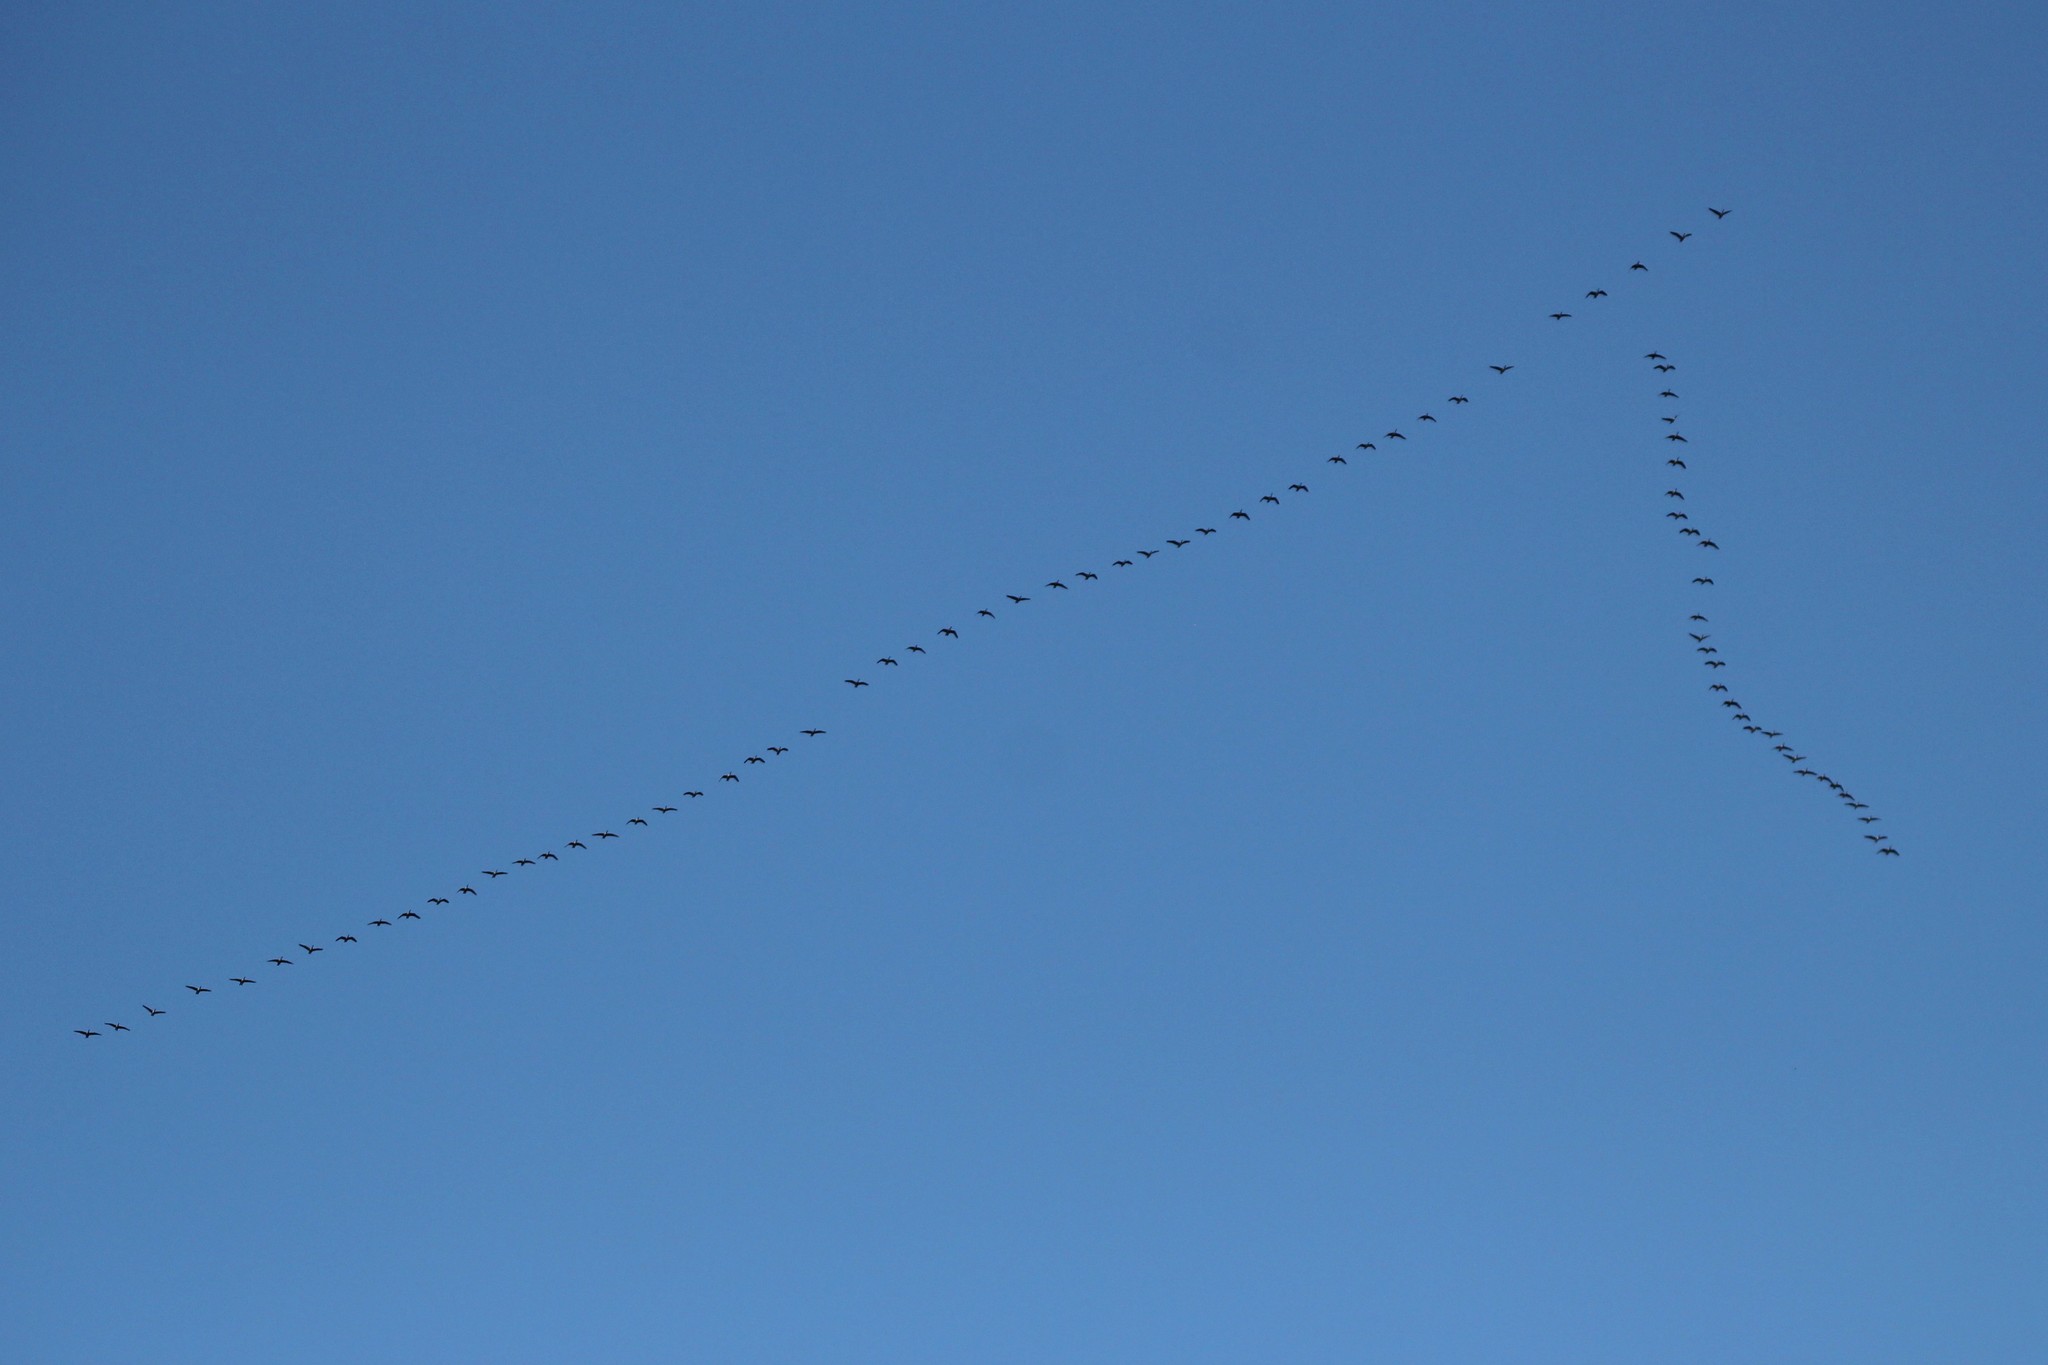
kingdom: Animalia
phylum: Chordata
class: Aves
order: Anseriformes
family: Anatidae
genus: Branta
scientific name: Branta canadensis
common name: Canada goose
